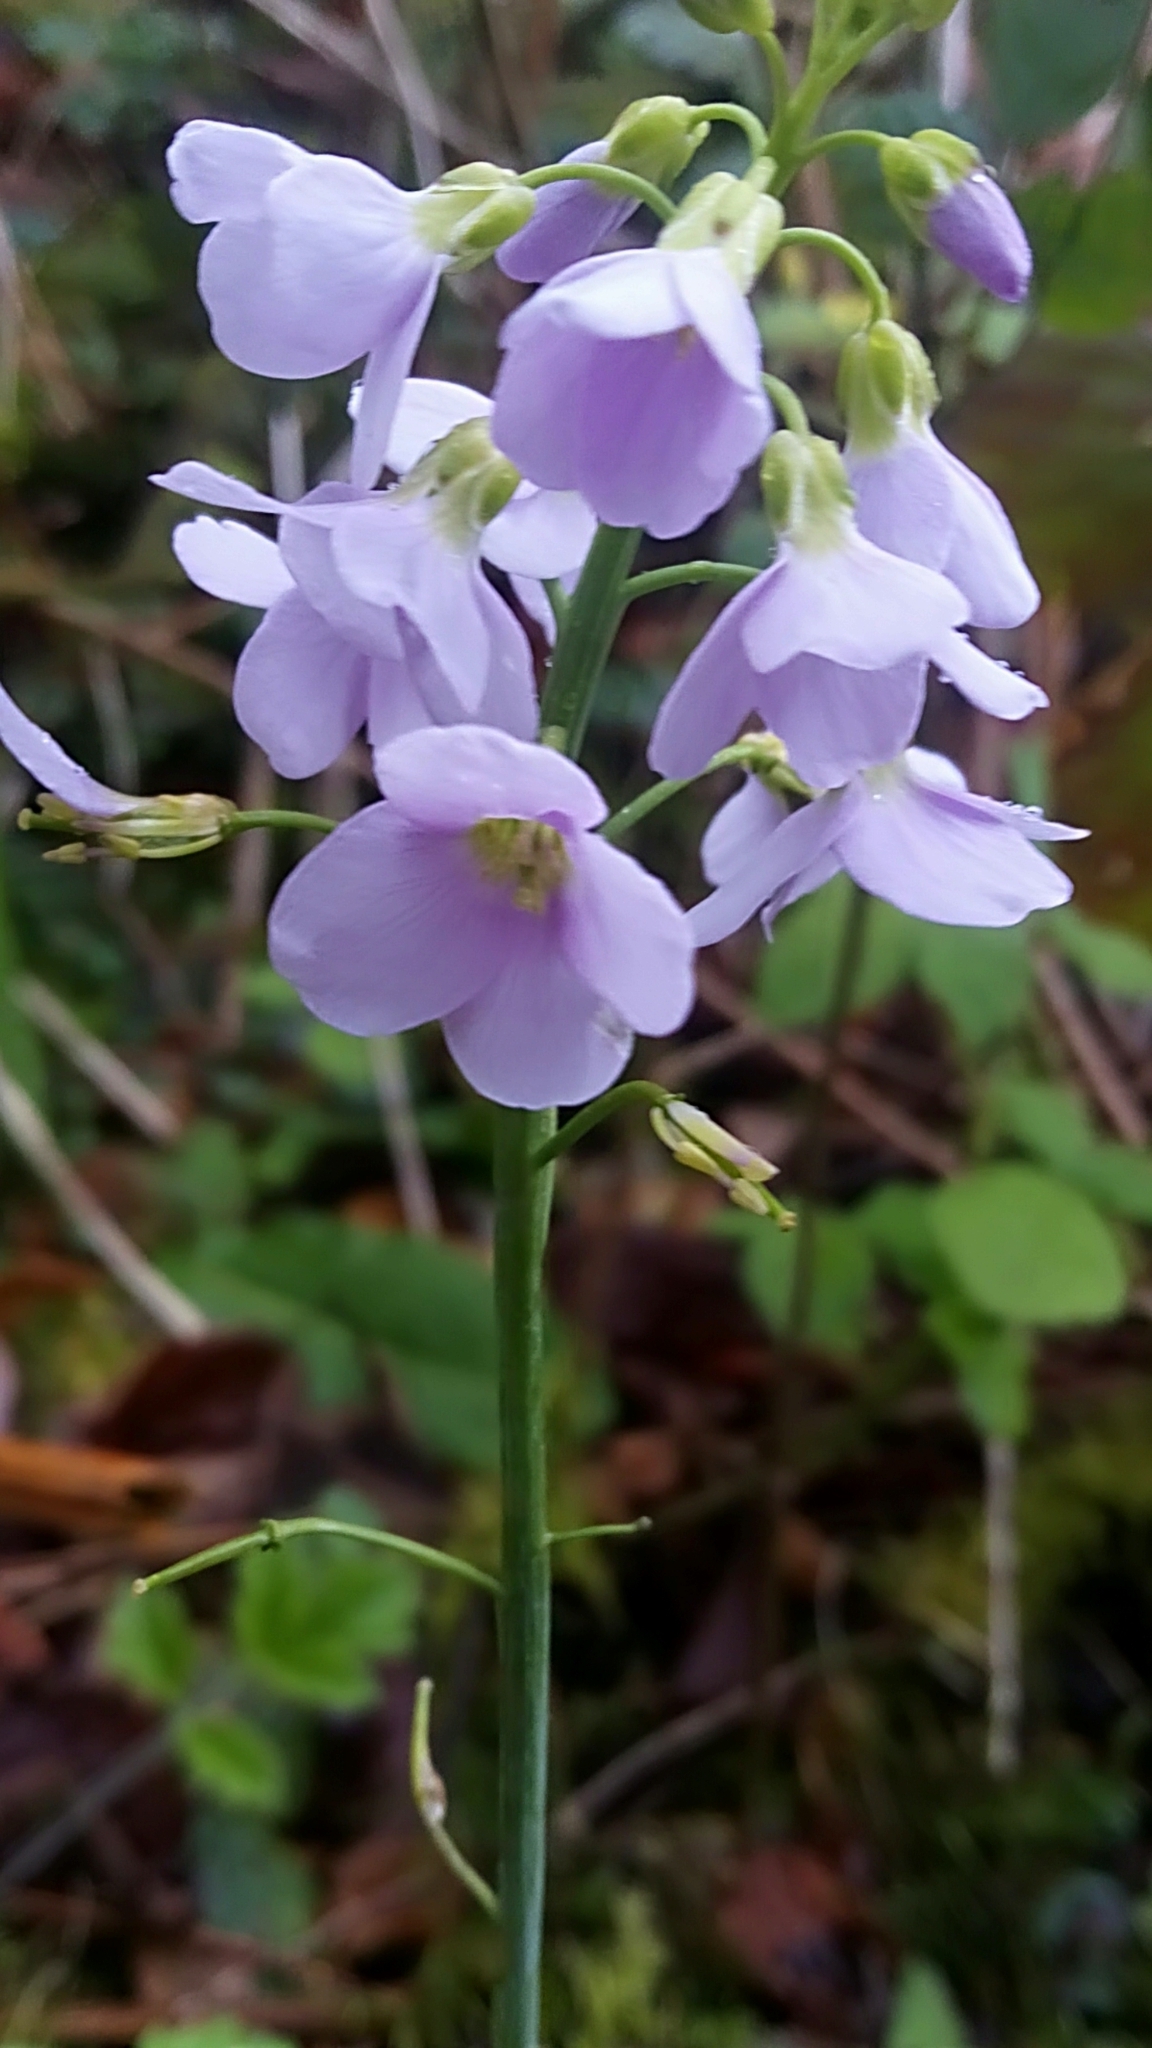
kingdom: Plantae
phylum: Tracheophyta
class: Magnoliopsida
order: Brassicales
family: Brassicaceae
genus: Cardamine
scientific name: Cardamine pratensis
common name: Cuckoo flower
